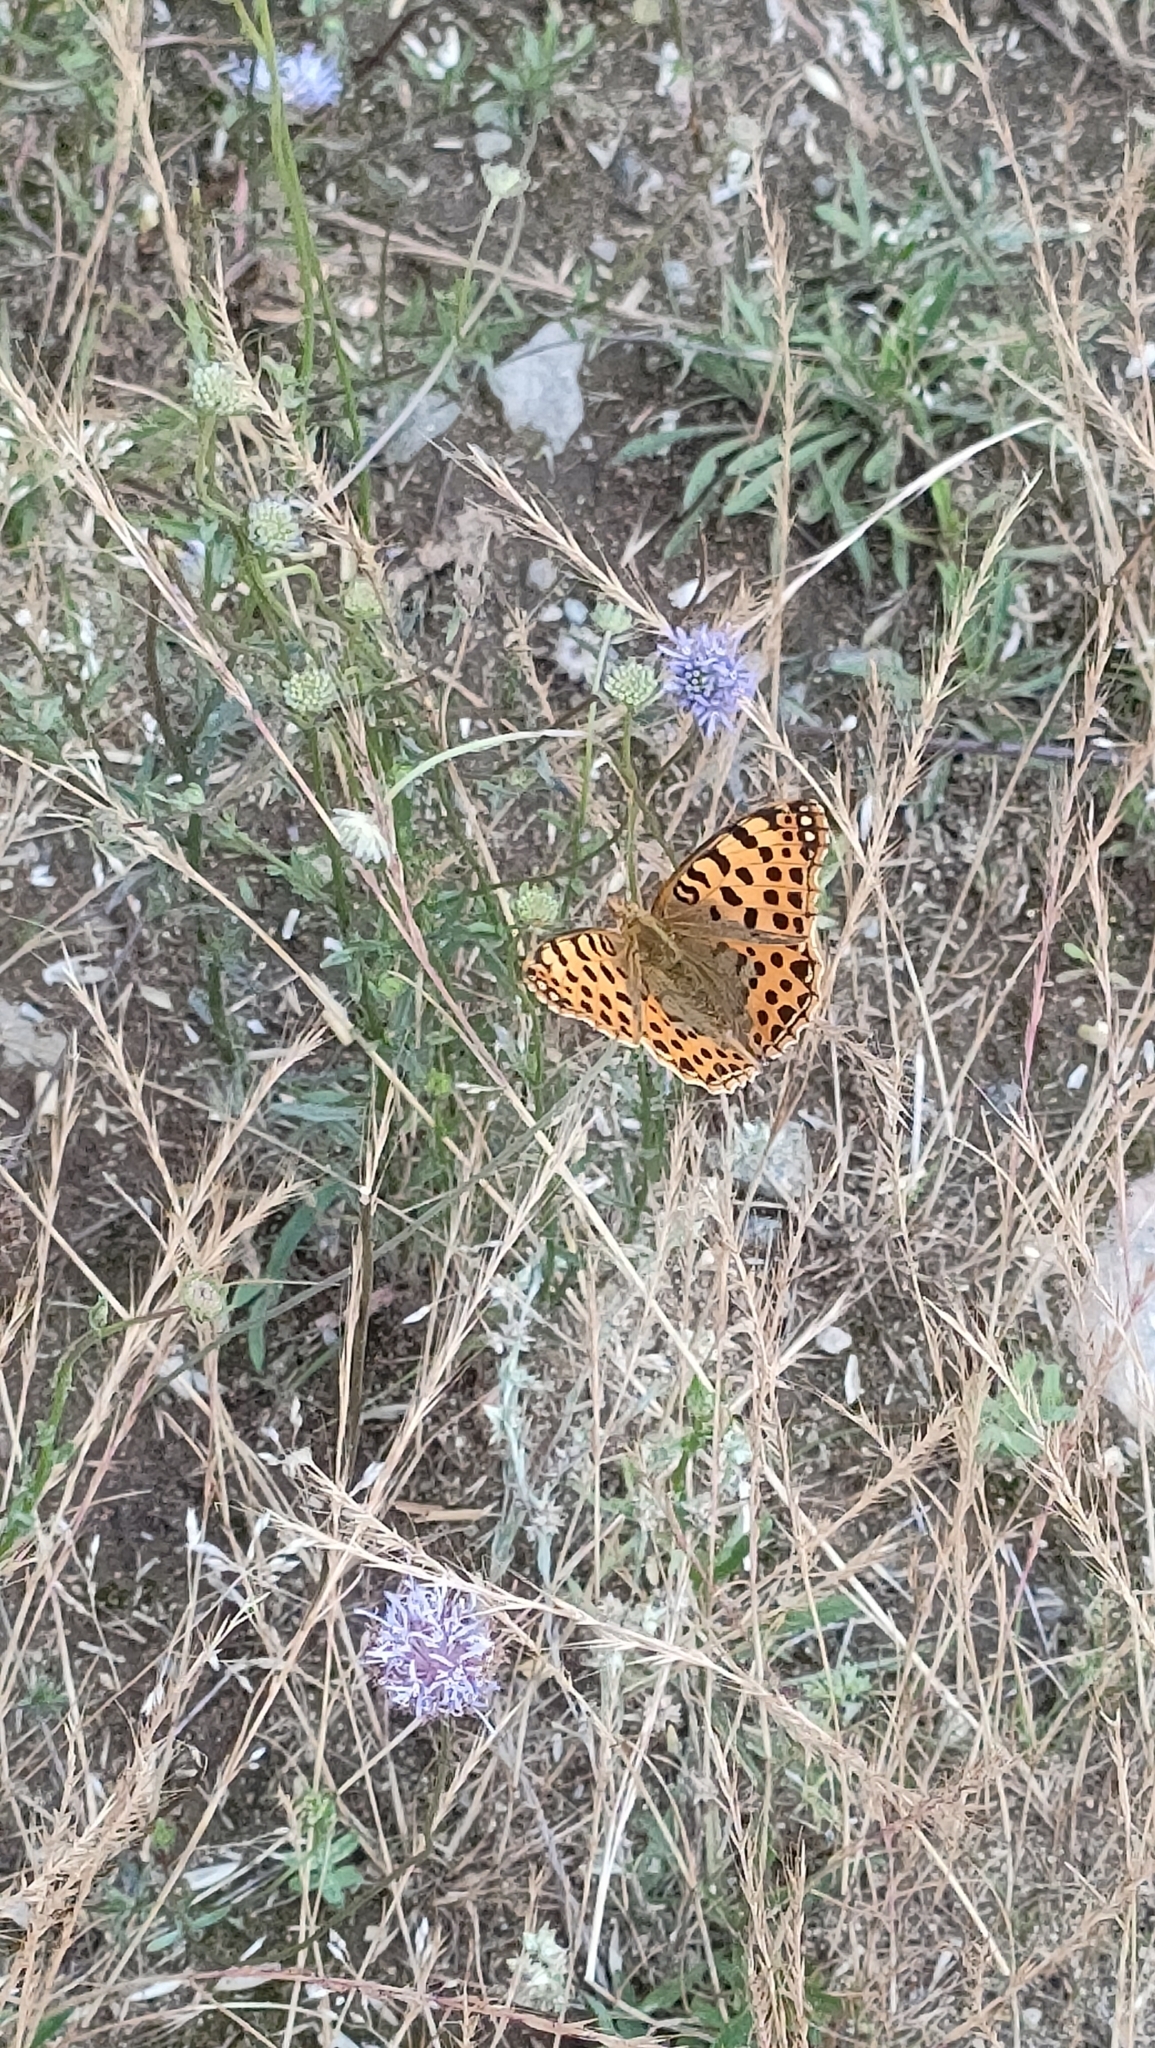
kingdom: Animalia
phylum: Arthropoda
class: Insecta
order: Lepidoptera
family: Nymphalidae
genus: Issoria
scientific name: Issoria lathonia
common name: Queen of spain fritillary
